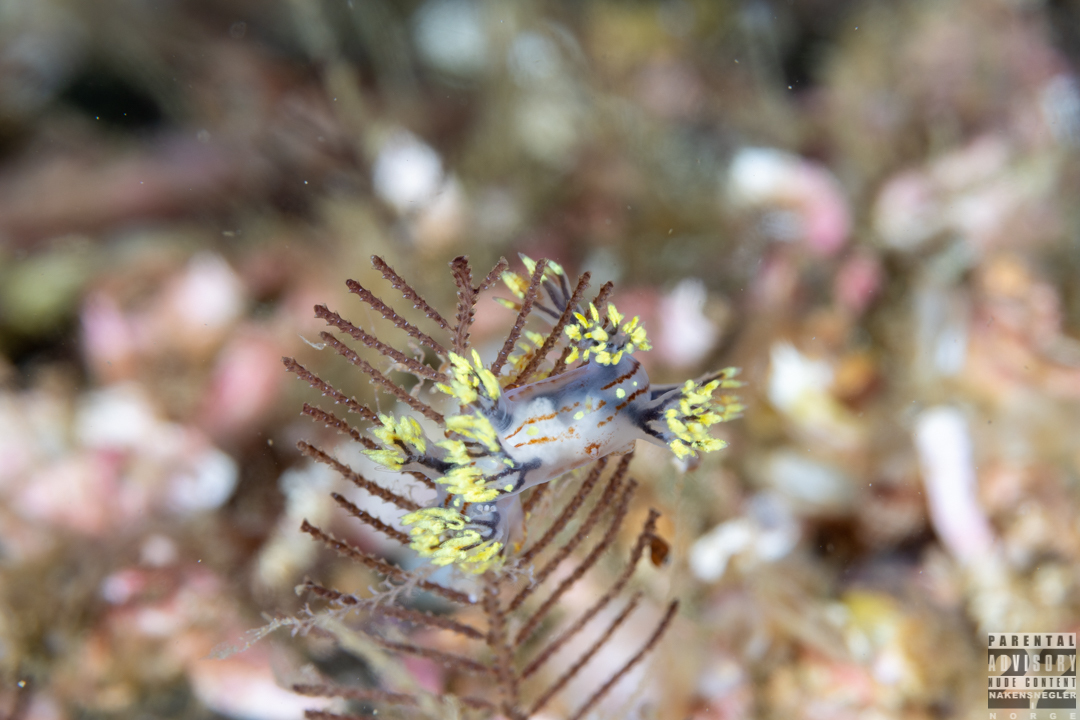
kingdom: Animalia
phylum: Mollusca
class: Gastropoda
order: Nudibranchia
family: Dendronotidae
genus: Dendronotus
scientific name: Dendronotus yrjargul
